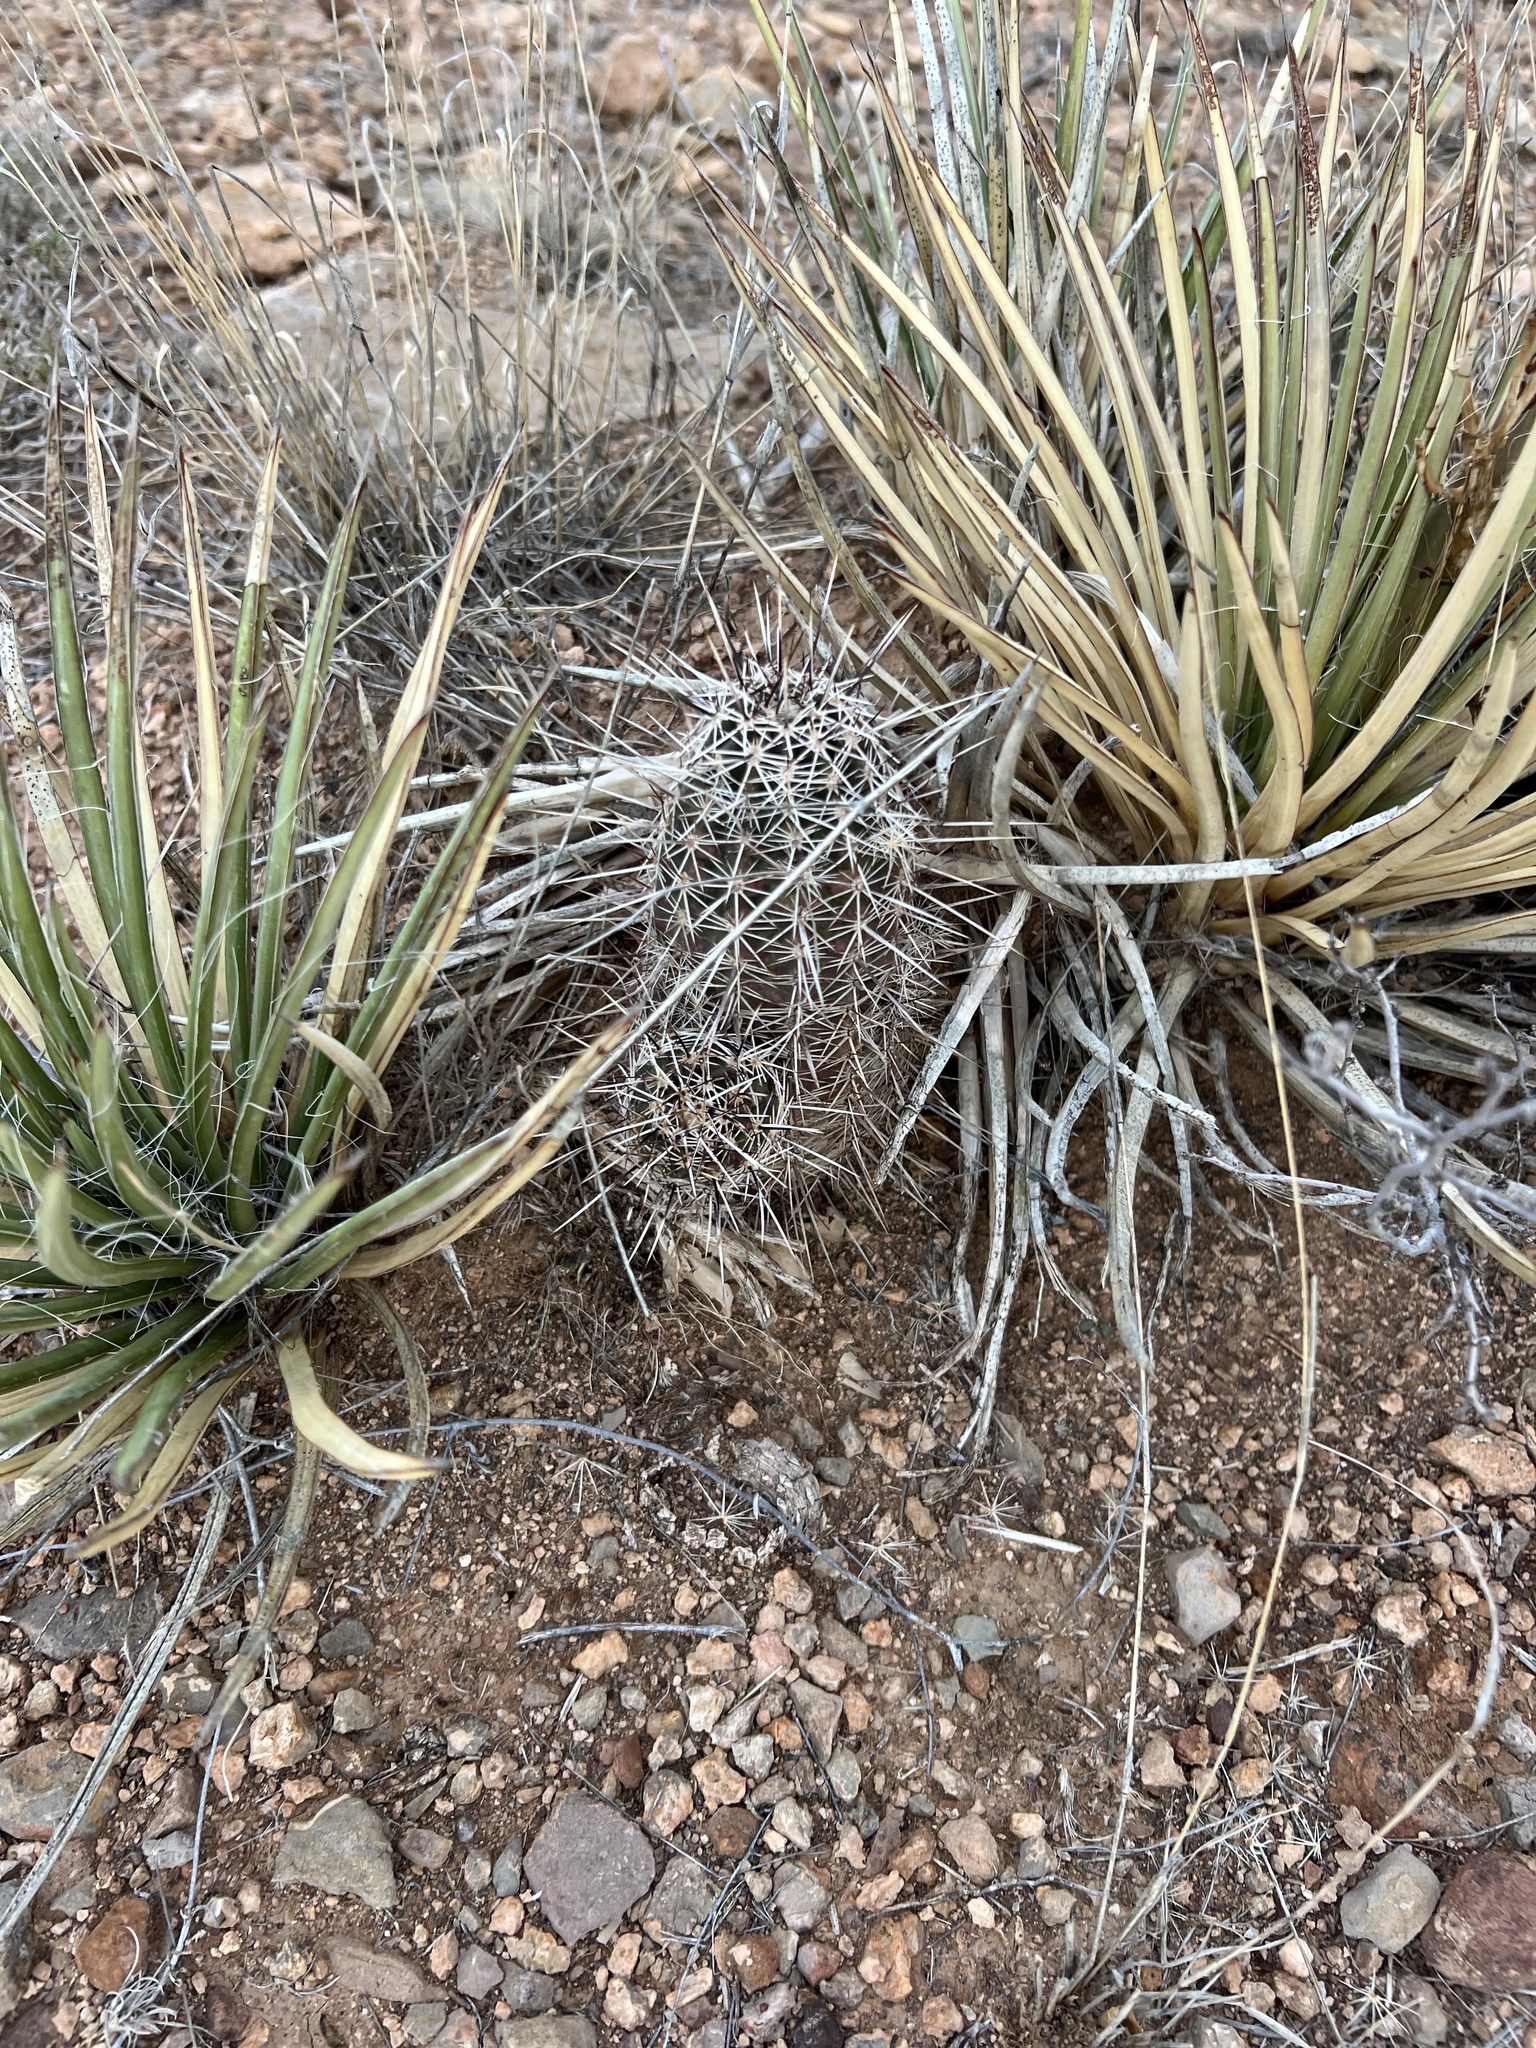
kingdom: Plantae
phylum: Tracheophyta
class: Magnoliopsida
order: Caryophyllales
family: Cactaceae
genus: Echinocereus
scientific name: Echinocereus fasciculatus
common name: Bundle hedgehog
